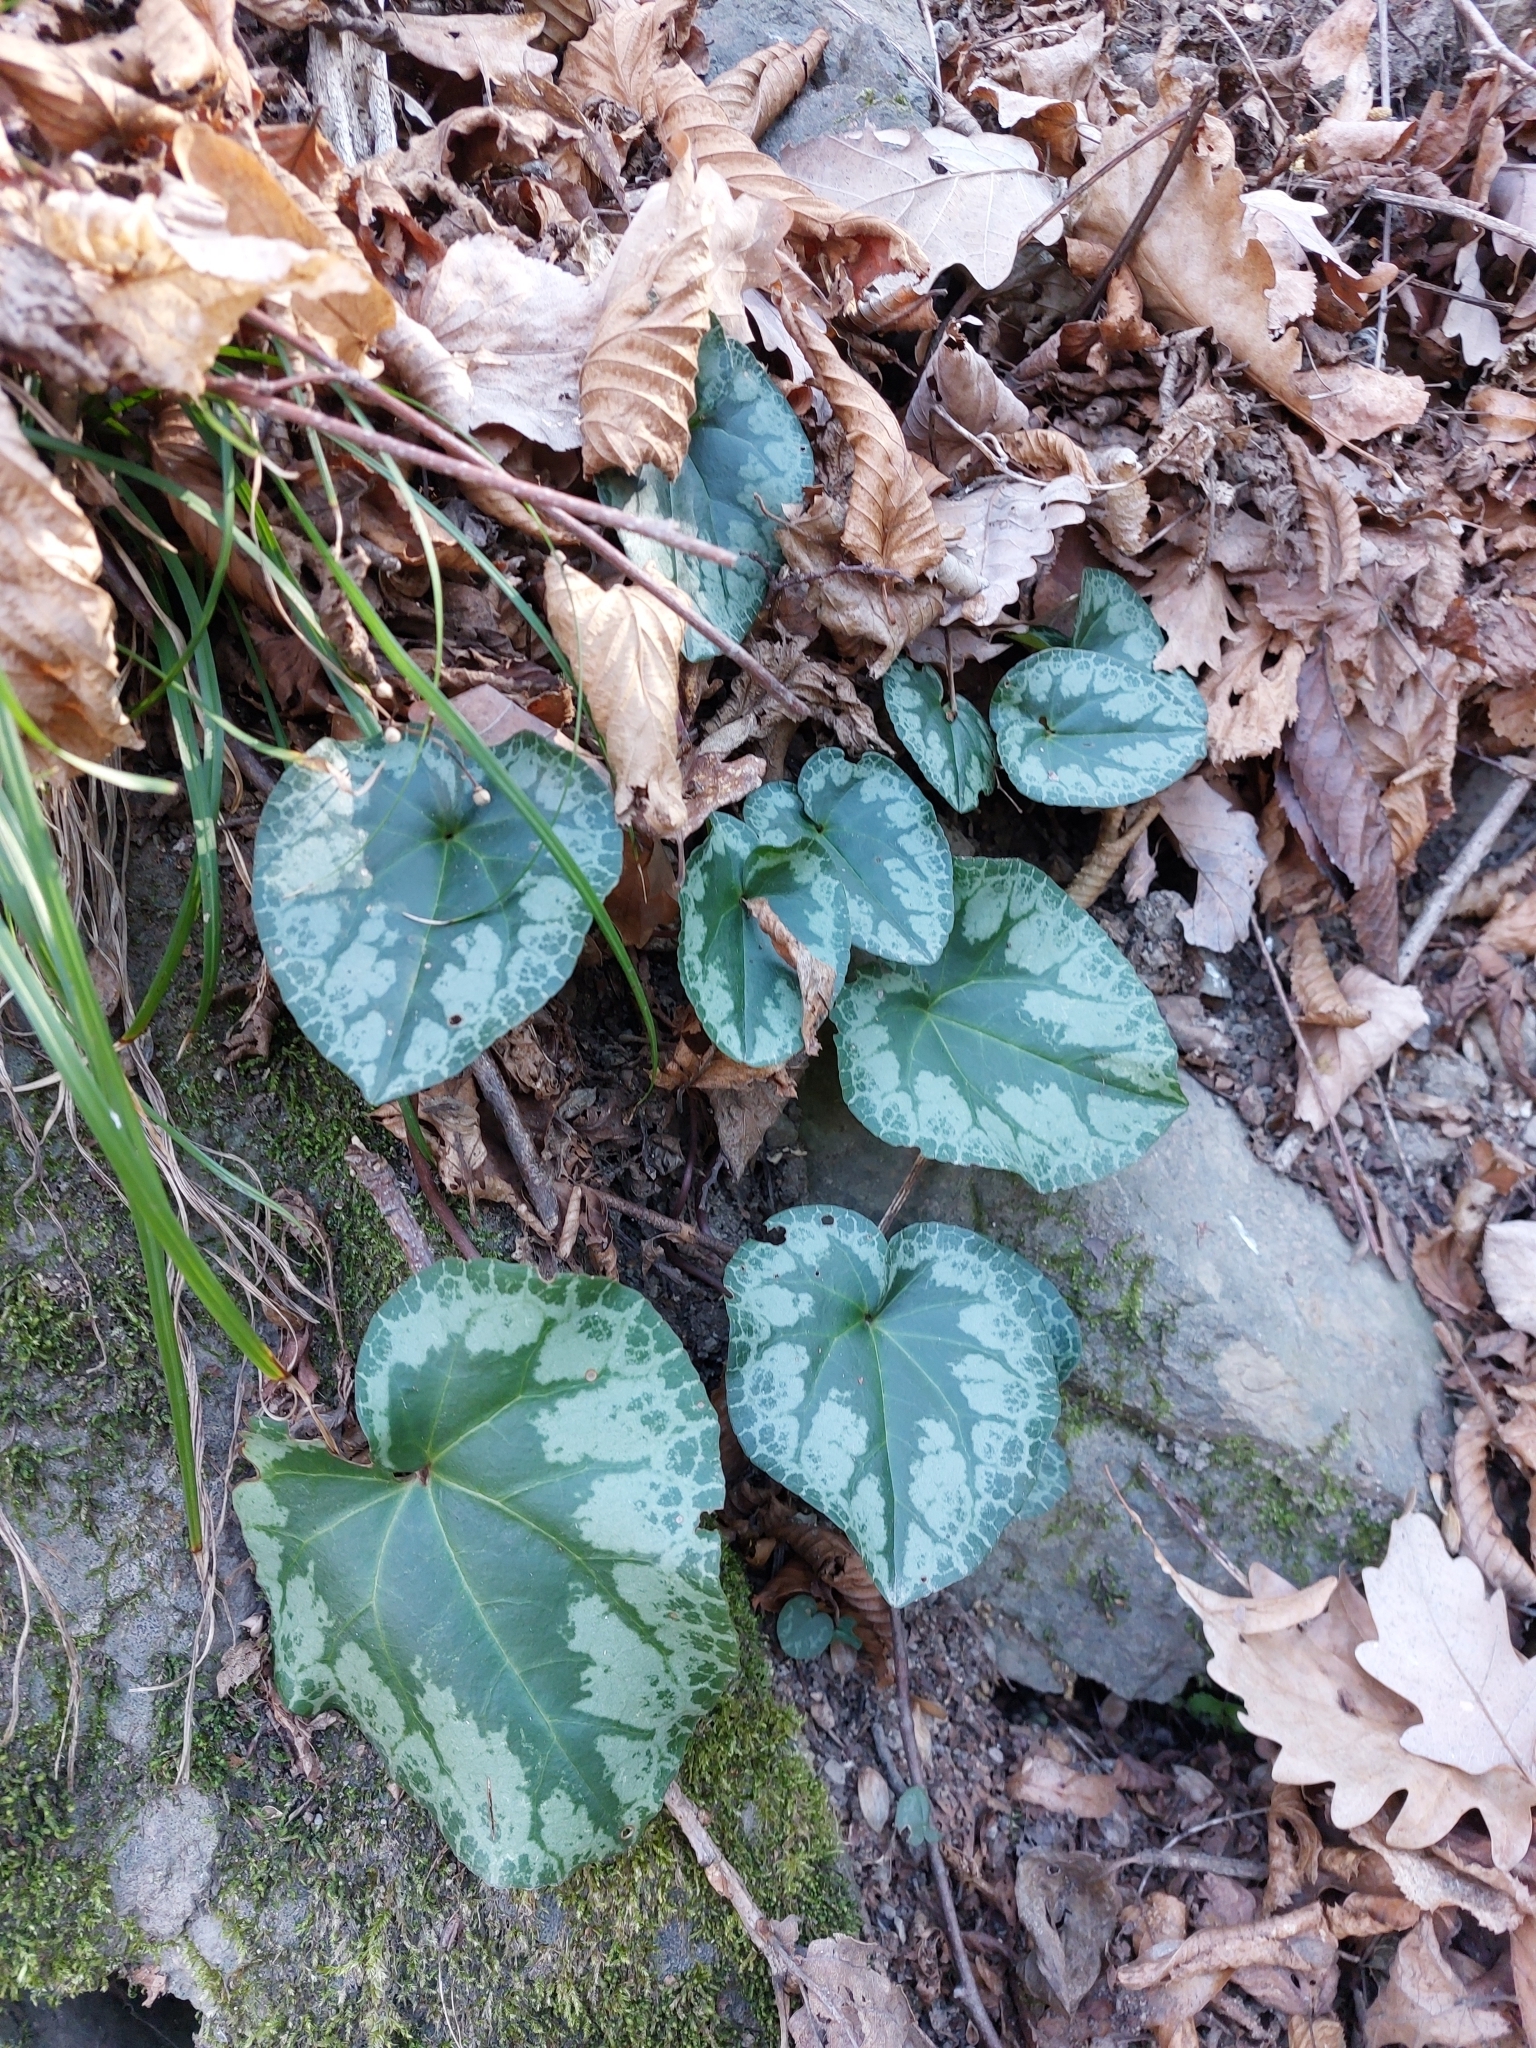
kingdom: Plantae
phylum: Tracheophyta
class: Magnoliopsida
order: Ericales
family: Primulaceae
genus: Cyclamen
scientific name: Cyclamen purpurascens
